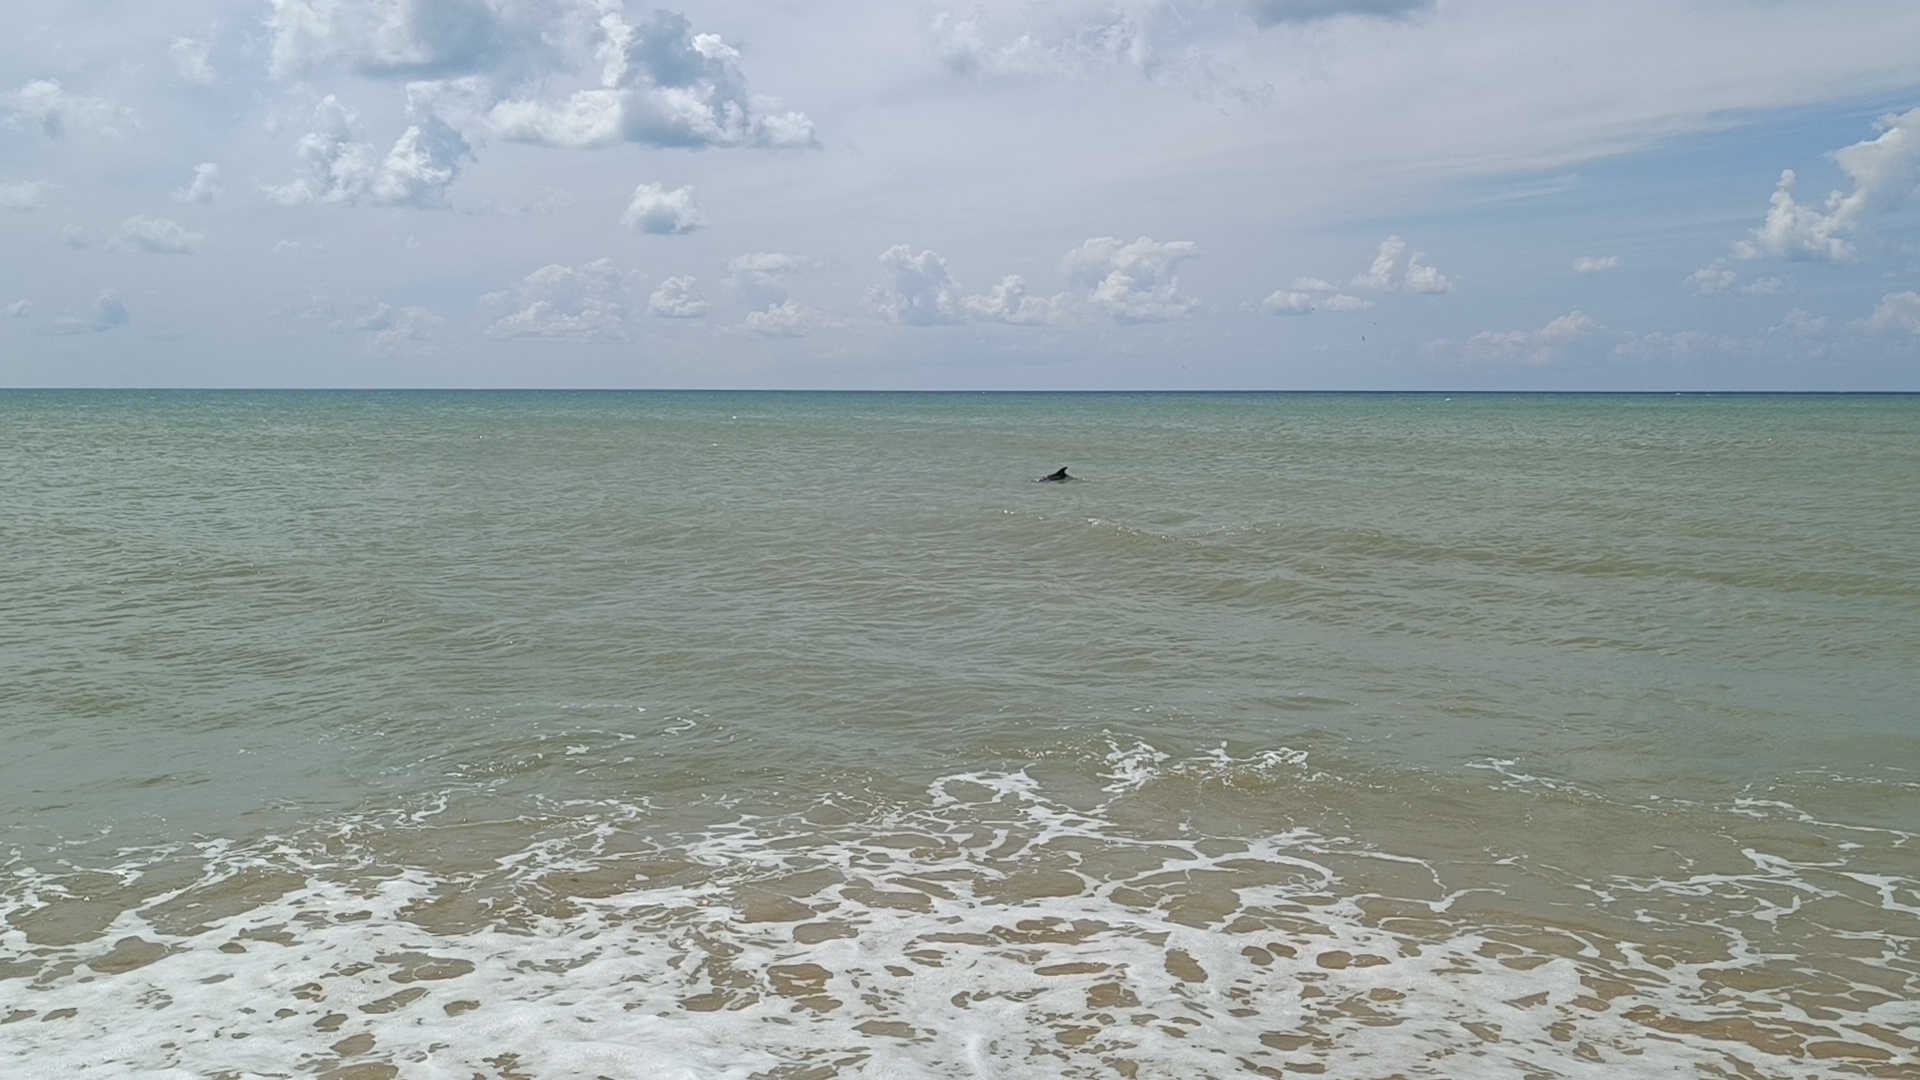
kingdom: Animalia
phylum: Chordata
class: Mammalia
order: Cetacea
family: Delphinidae
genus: Tursiops
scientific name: Tursiops truncatus
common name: Bottlenose dolphin
